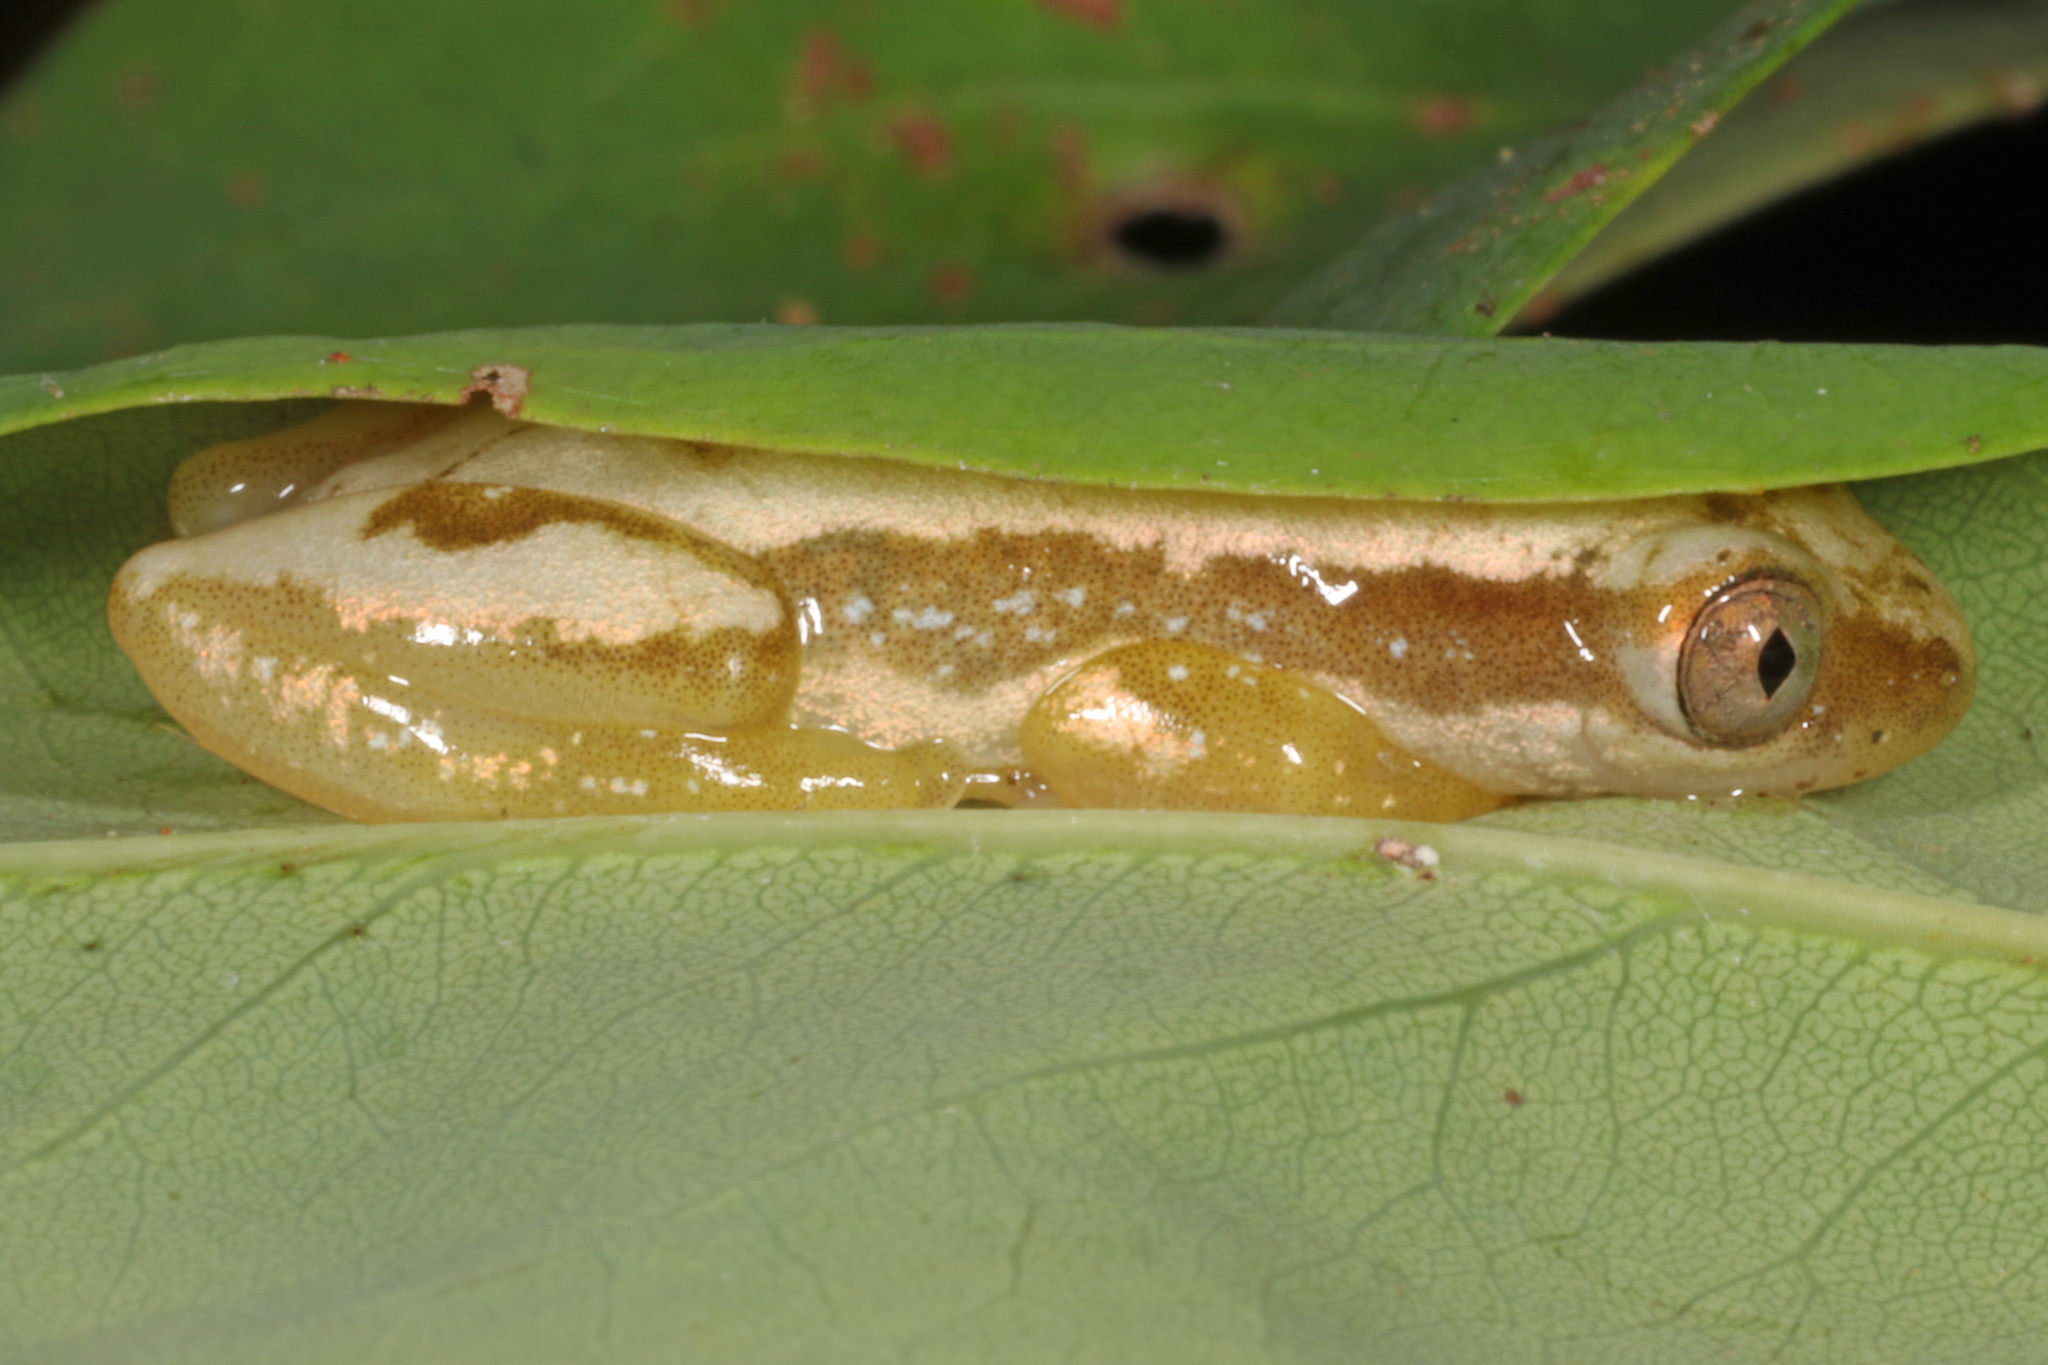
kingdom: Animalia
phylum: Chordata
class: Amphibia
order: Anura
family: Hyperoliidae
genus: Afrixalus
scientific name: Afrixalus delicatus
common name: Delicate leaf-folding frog
